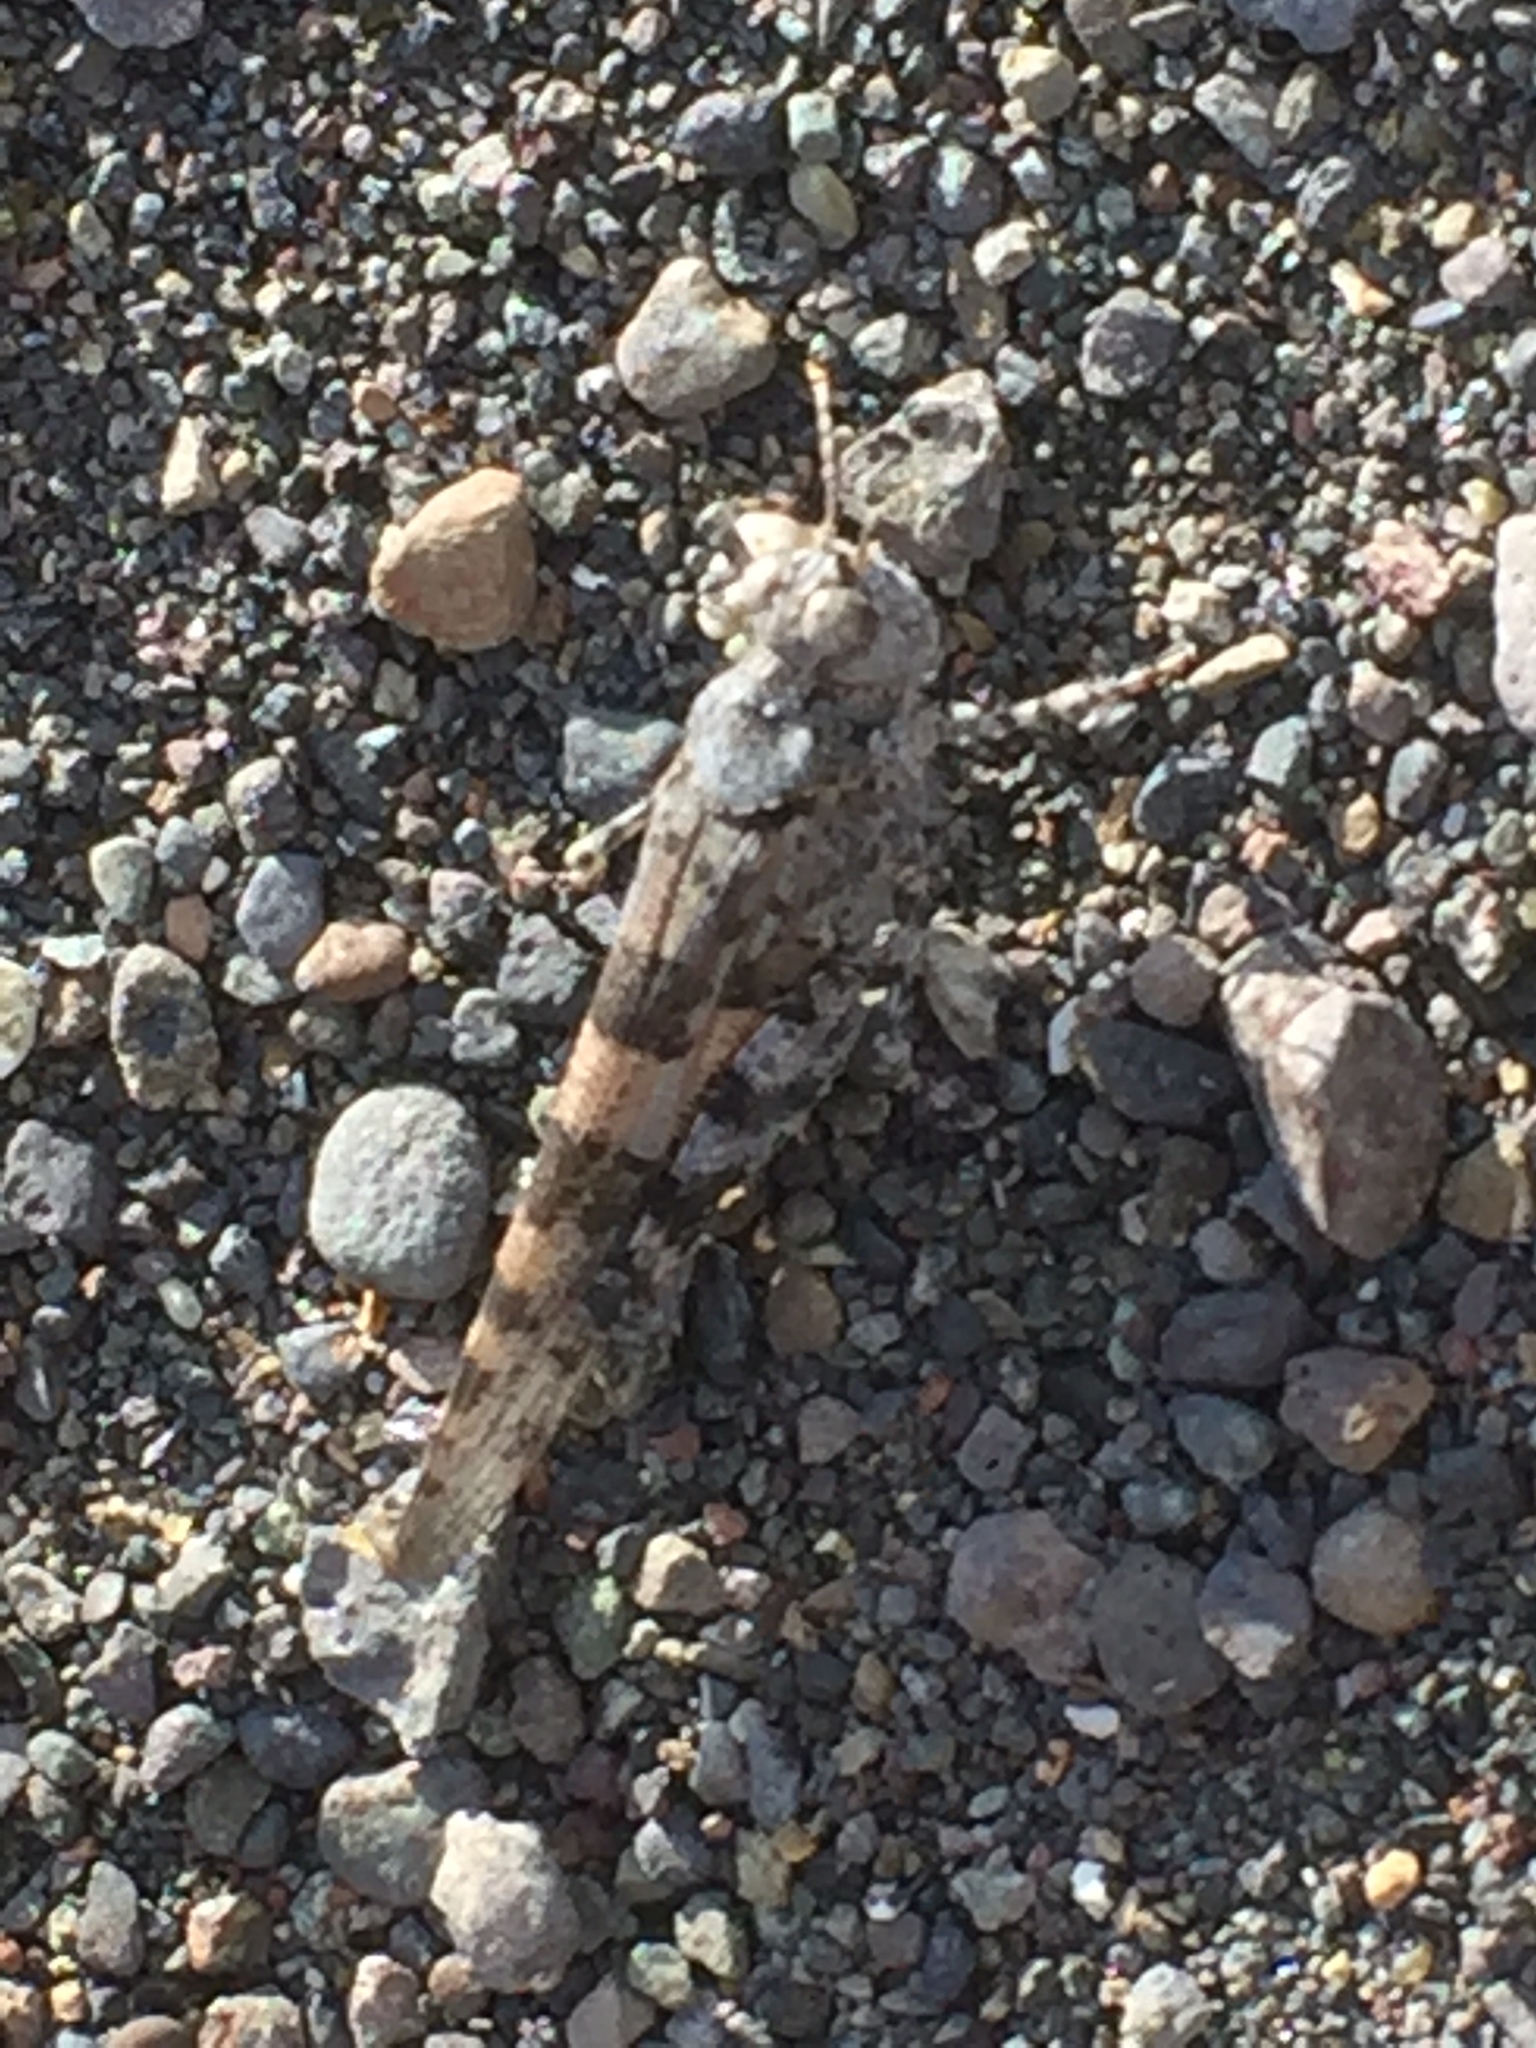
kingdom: Animalia
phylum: Arthropoda
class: Insecta
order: Orthoptera
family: Acrididae
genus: Sphingonotus
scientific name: Sphingonotus rubescens
